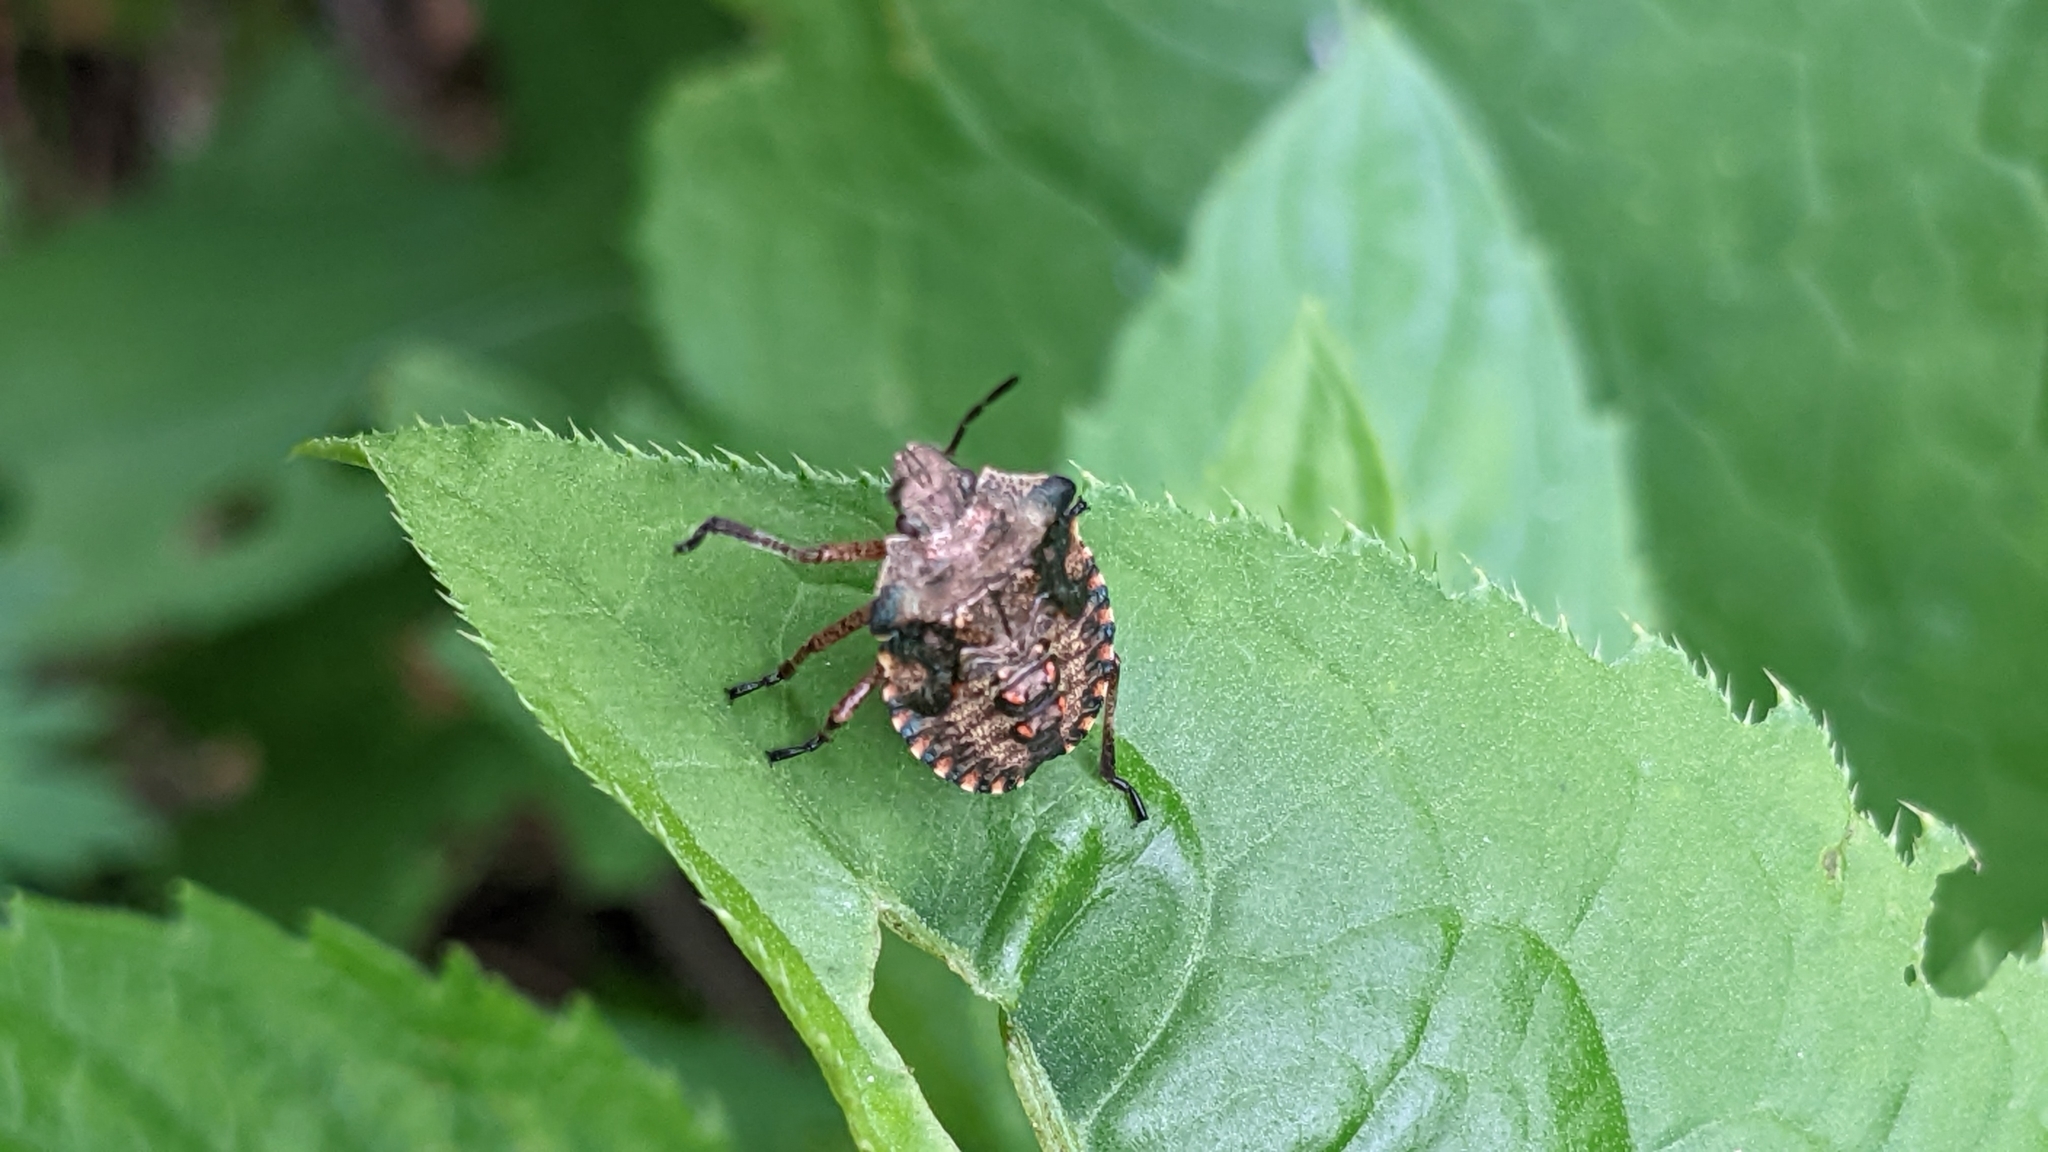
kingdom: Animalia
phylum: Arthropoda
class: Insecta
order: Hemiptera
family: Pentatomidae
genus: Pentatoma
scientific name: Pentatoma rufipes
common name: Forest bug
